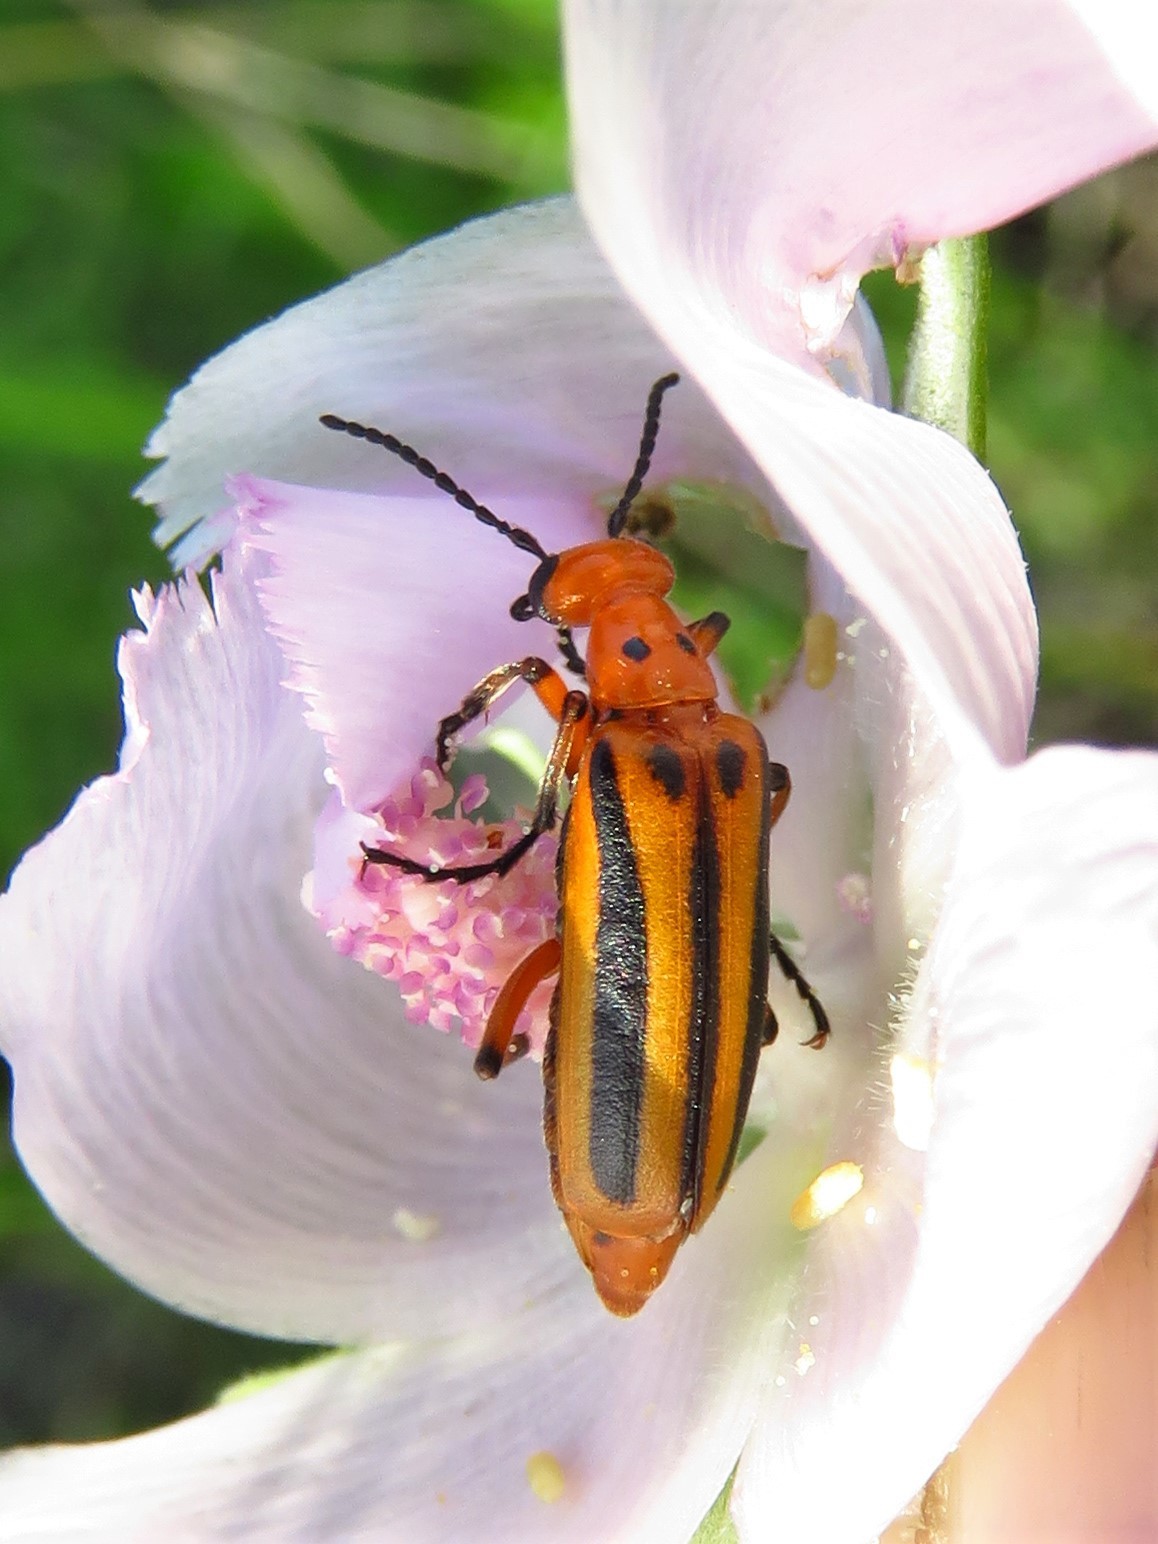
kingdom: Animalia
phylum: Arthropoda
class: Insecta
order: Coleoptera
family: Meloidae
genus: Pyrota
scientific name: Pyrota discoidea
